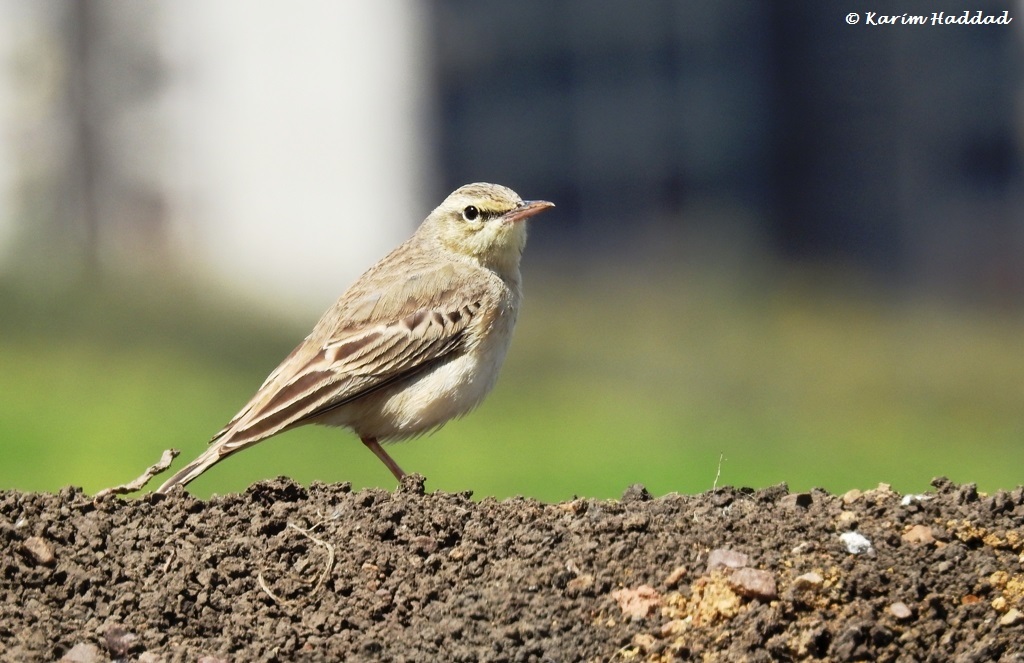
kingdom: Animalia
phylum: Chordata
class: Aves
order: Passeriformes
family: Motacillidae
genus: Anthus
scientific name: Anthus campestris
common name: Tawny pipit
